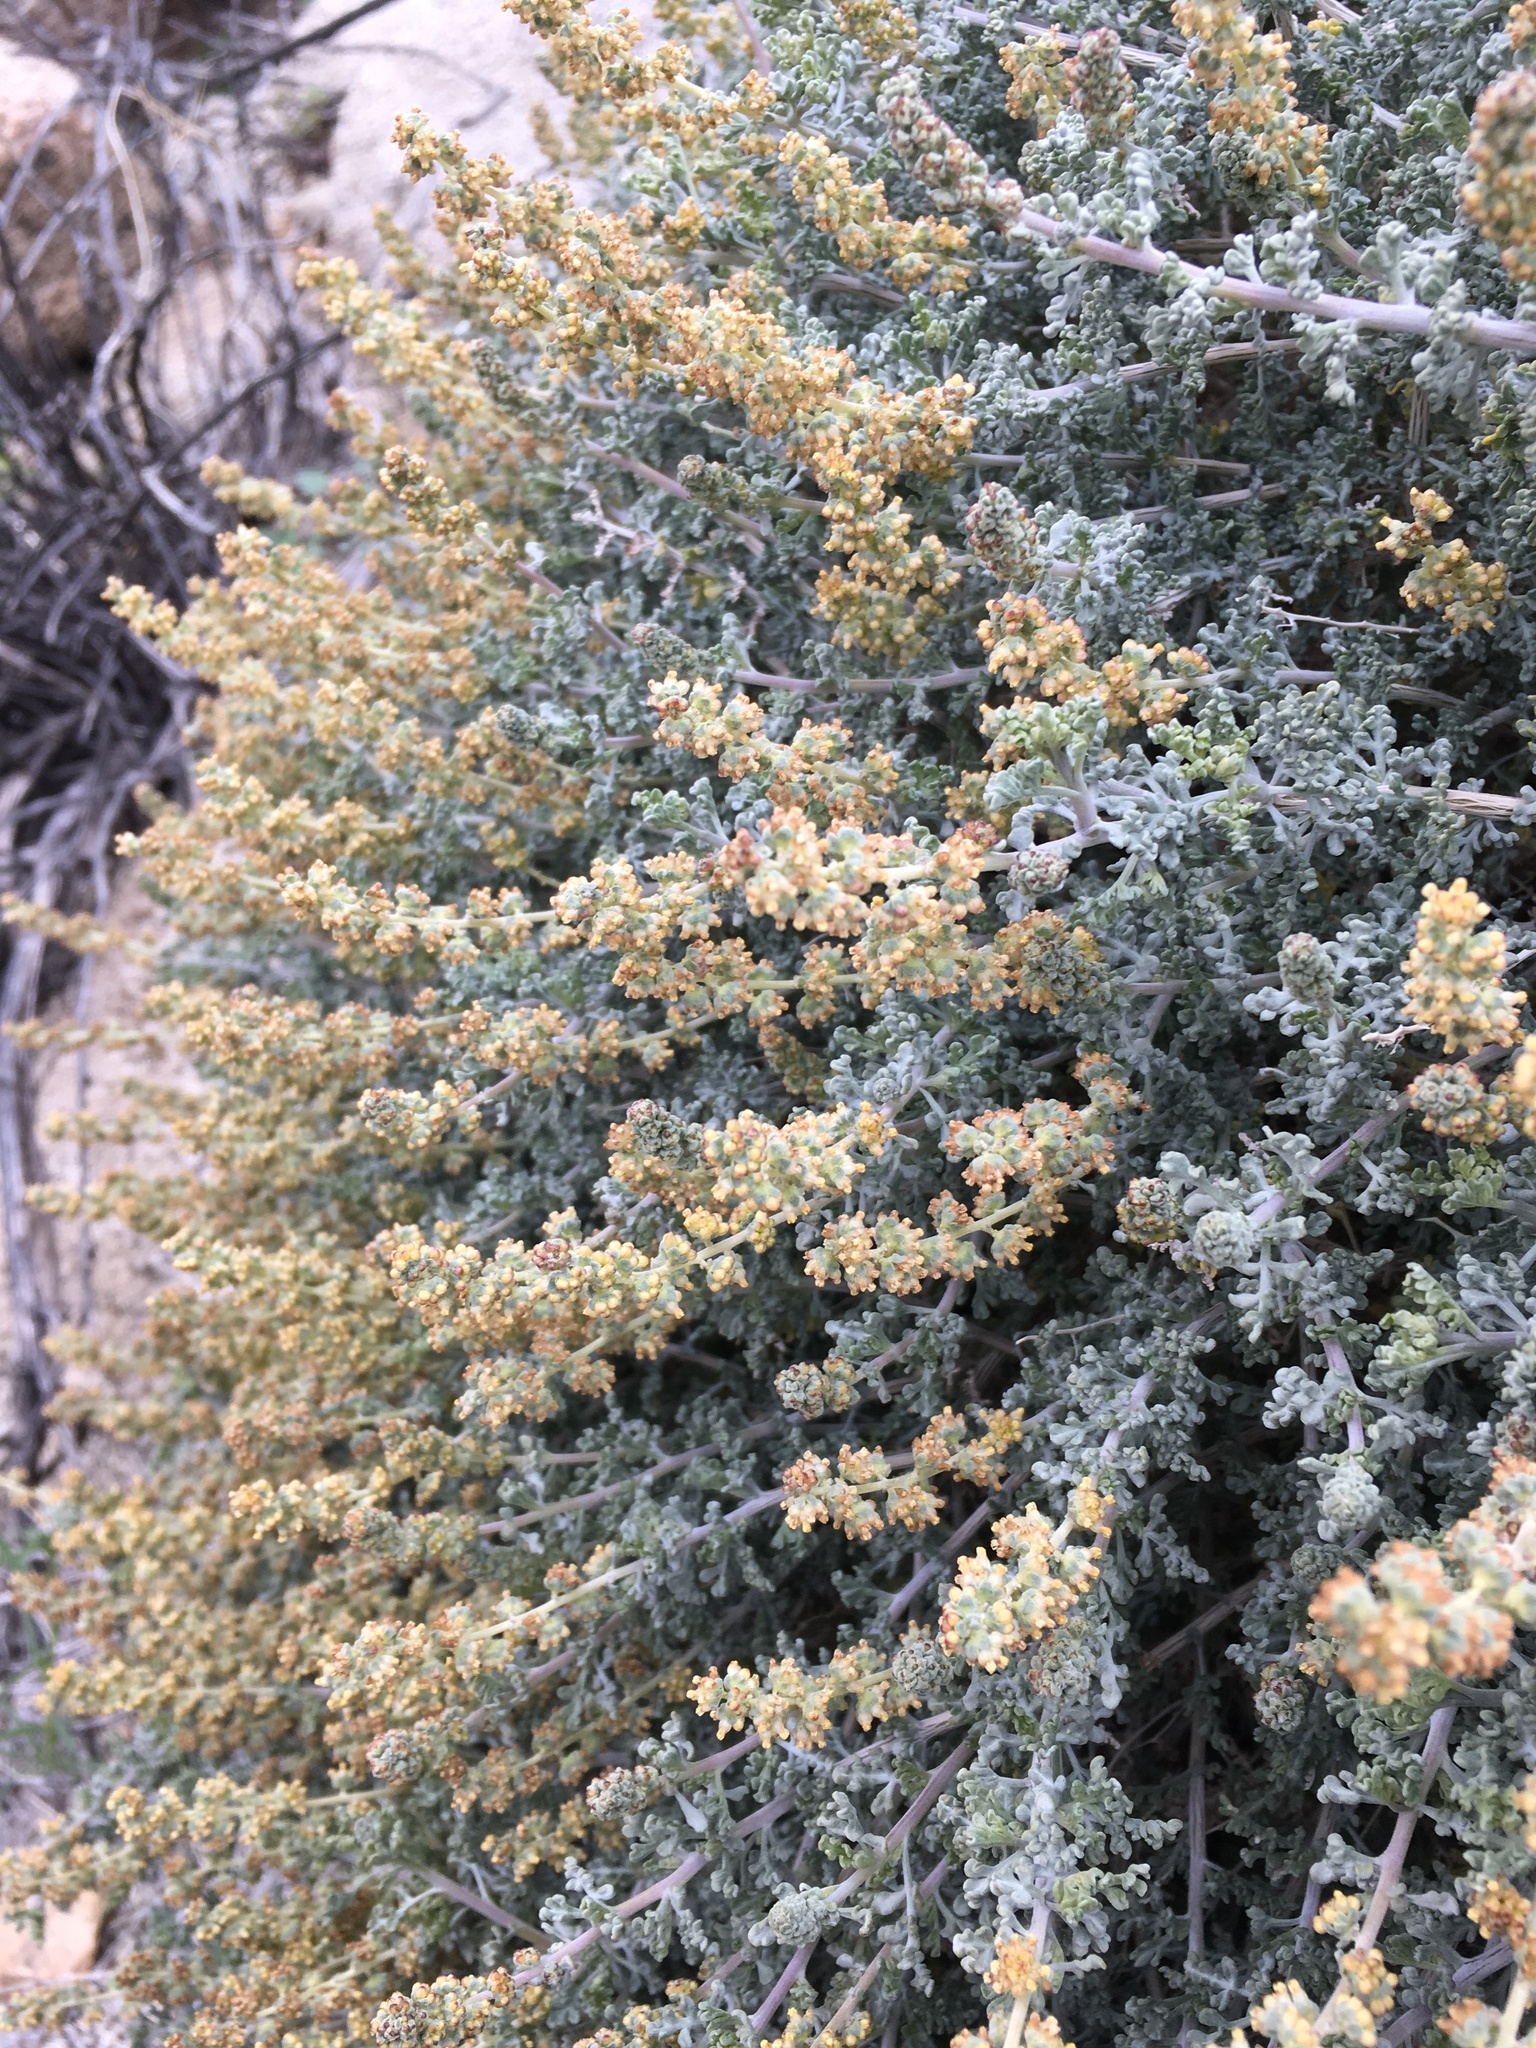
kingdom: Plantae
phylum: Tracheophyta
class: Magnoliopsida
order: Asterales
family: Asteraceae
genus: Ambrosia
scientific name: Ambrosia dumosa
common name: Bur-sage
